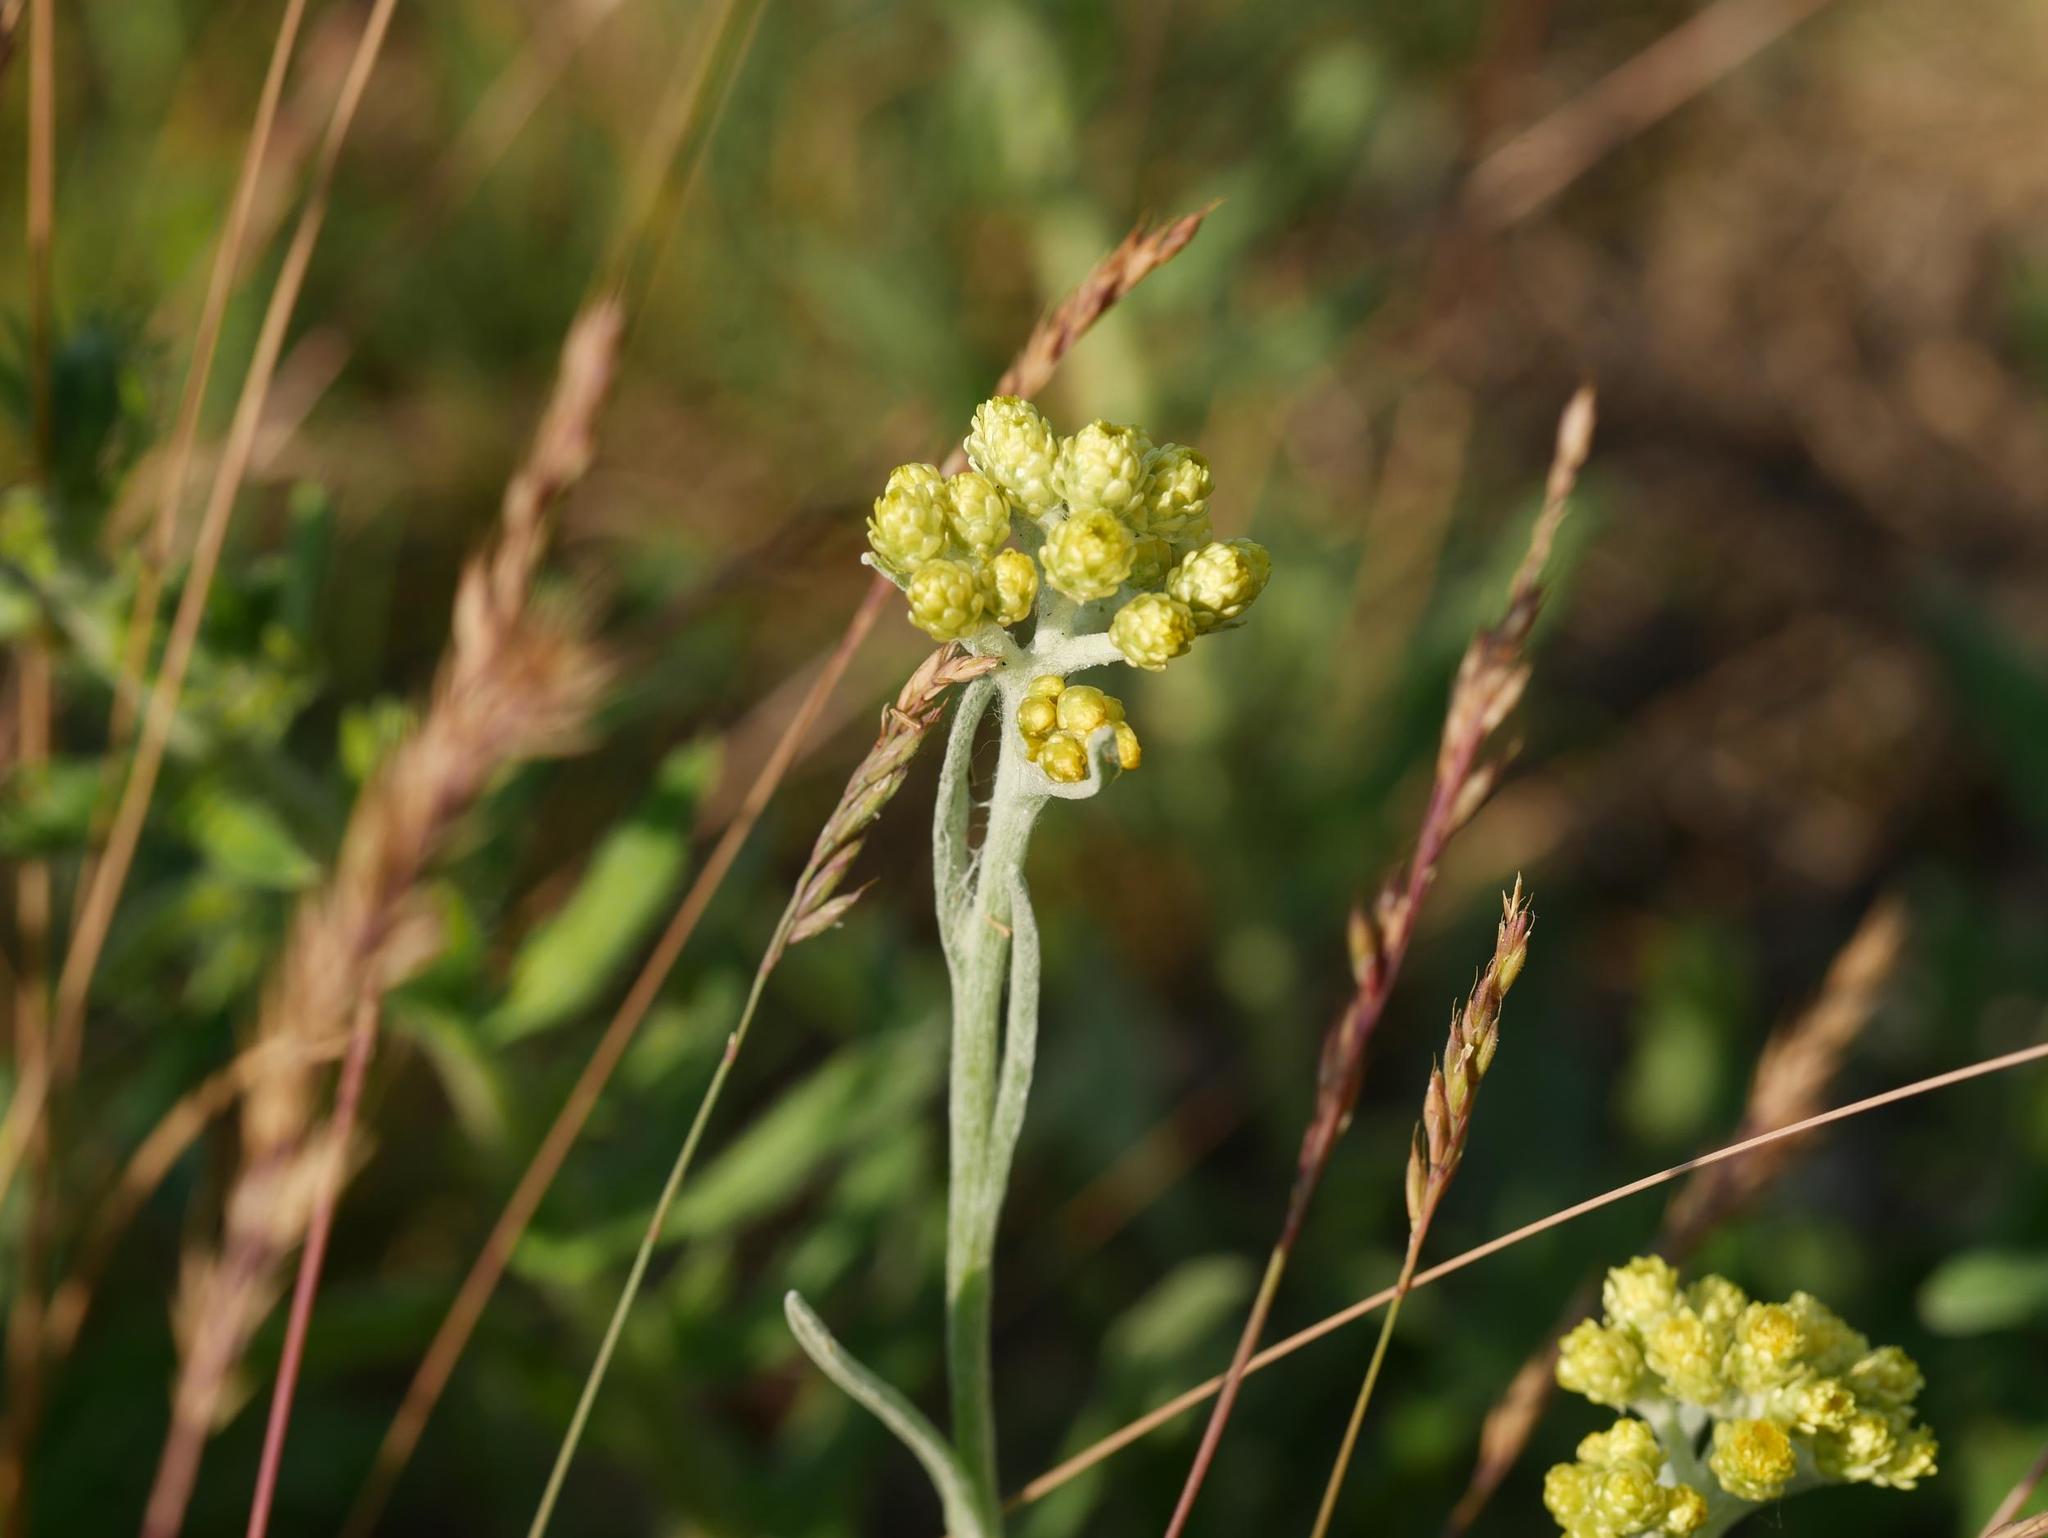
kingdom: Plantae
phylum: Tracheophyta
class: Magnoliopsida
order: Asterales
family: Asteraceae
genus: Helichrysum
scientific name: Helichrysum arenarium
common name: Strawflower
